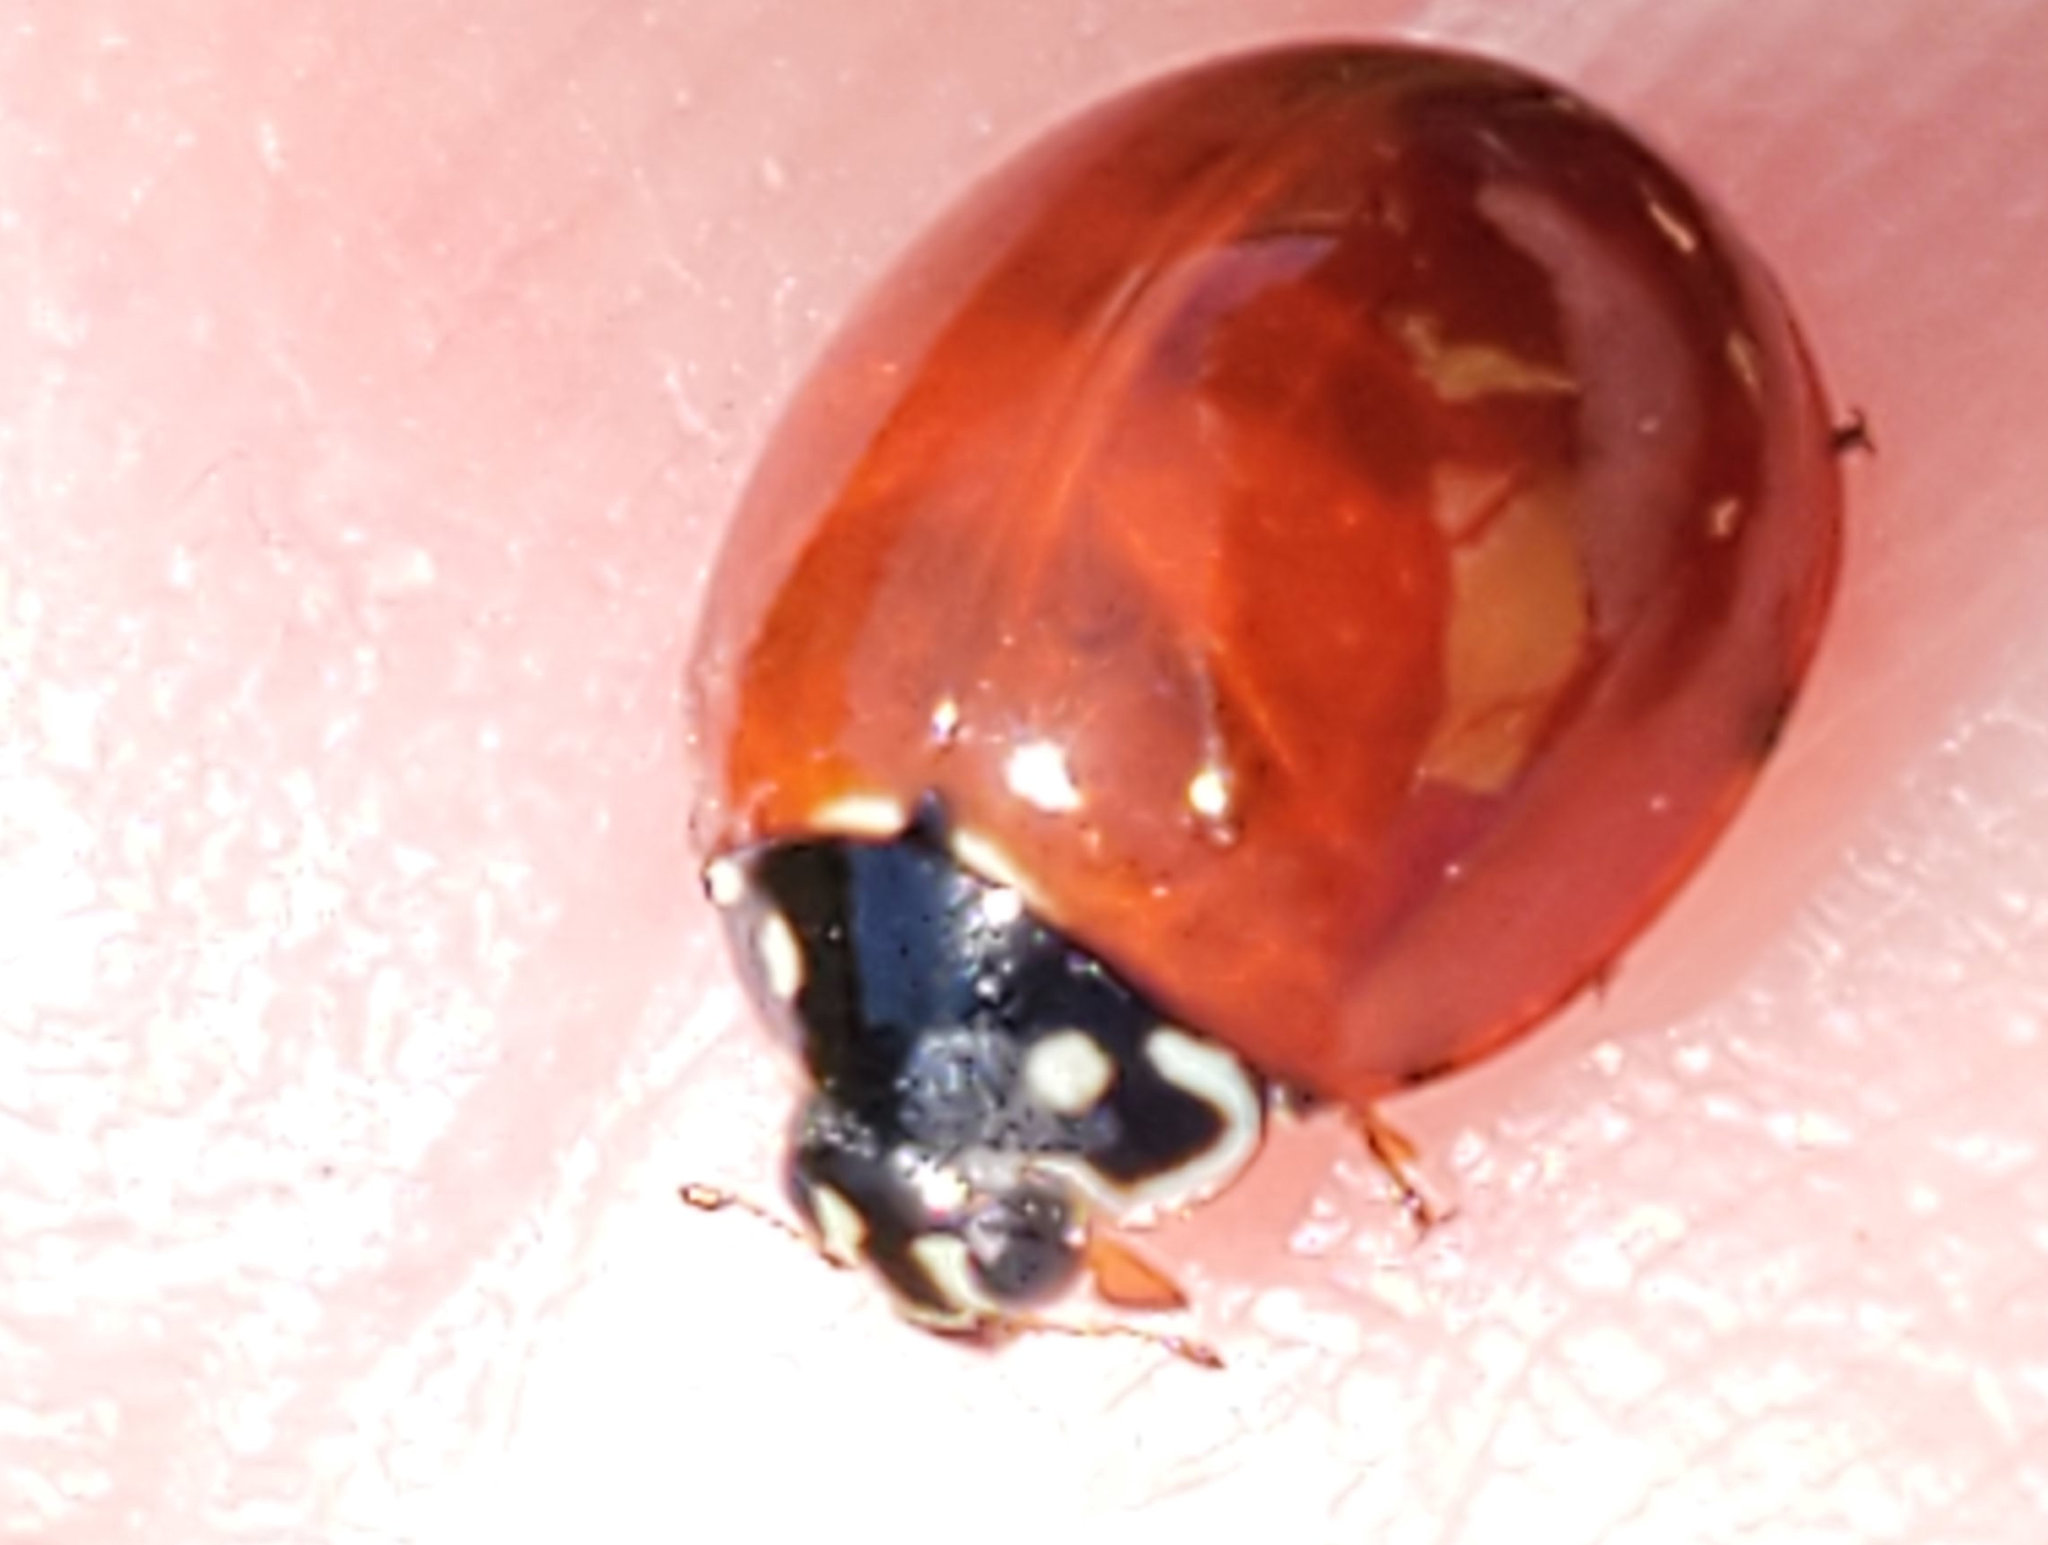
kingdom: Animalia
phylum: Arthropoda
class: Insecta
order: Coleoptera
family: Coccinellidae
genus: Cycloneda
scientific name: Cycloneda sanguinea
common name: Ladybird beetle
